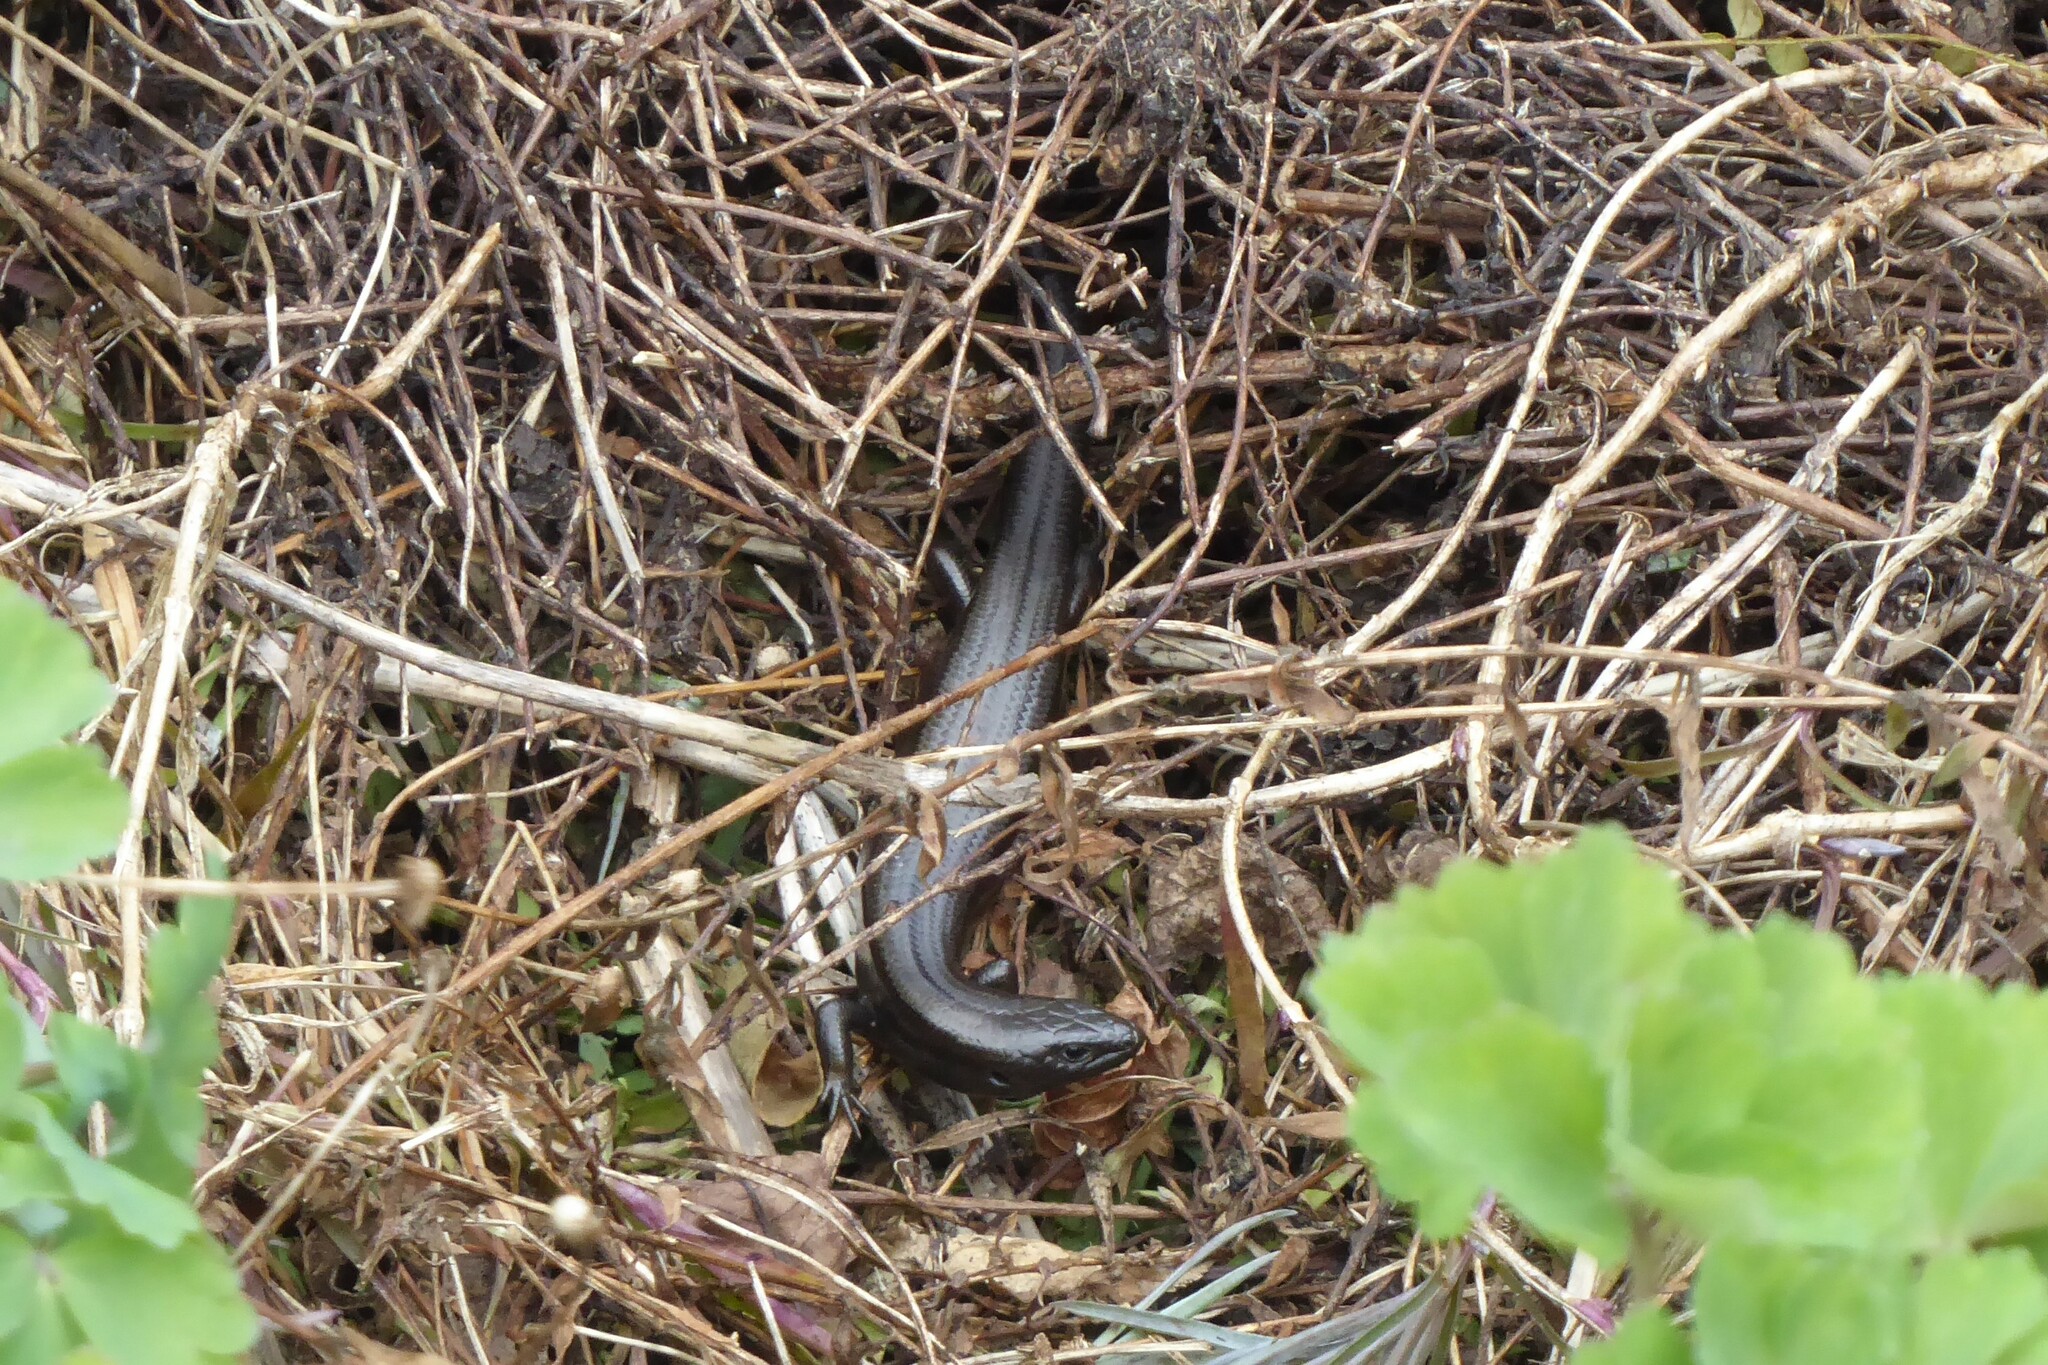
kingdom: Animalia
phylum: Chordata
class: Squamata
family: Scincidae
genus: Oligosoma
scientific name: Oligosoma polychroma
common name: Common new zealand skink
